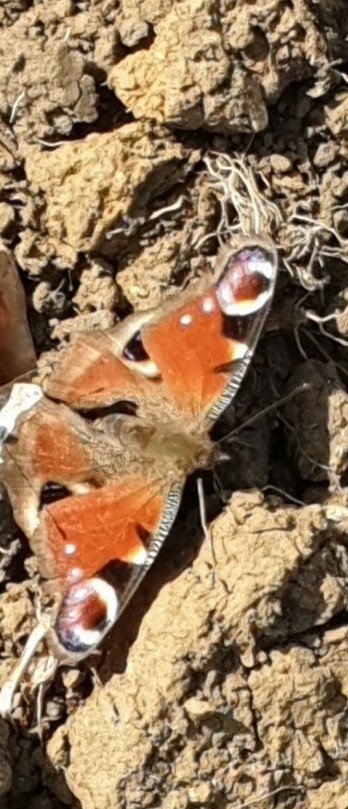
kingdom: Animalia
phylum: Arthropoda
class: Insecta
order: Lepidoptera
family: Nymphalidae
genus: Aglais
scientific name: Aglais io
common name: Peacock
